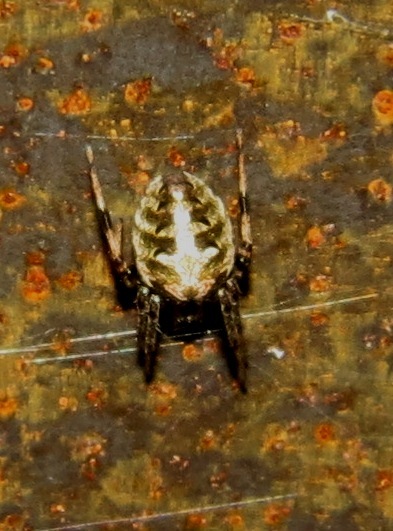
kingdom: Animalia
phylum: Arthropoda
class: Arachnida
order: Araneae
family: Araneidae
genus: Neoscona
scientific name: Neoscona arabesca
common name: Orb weavers
